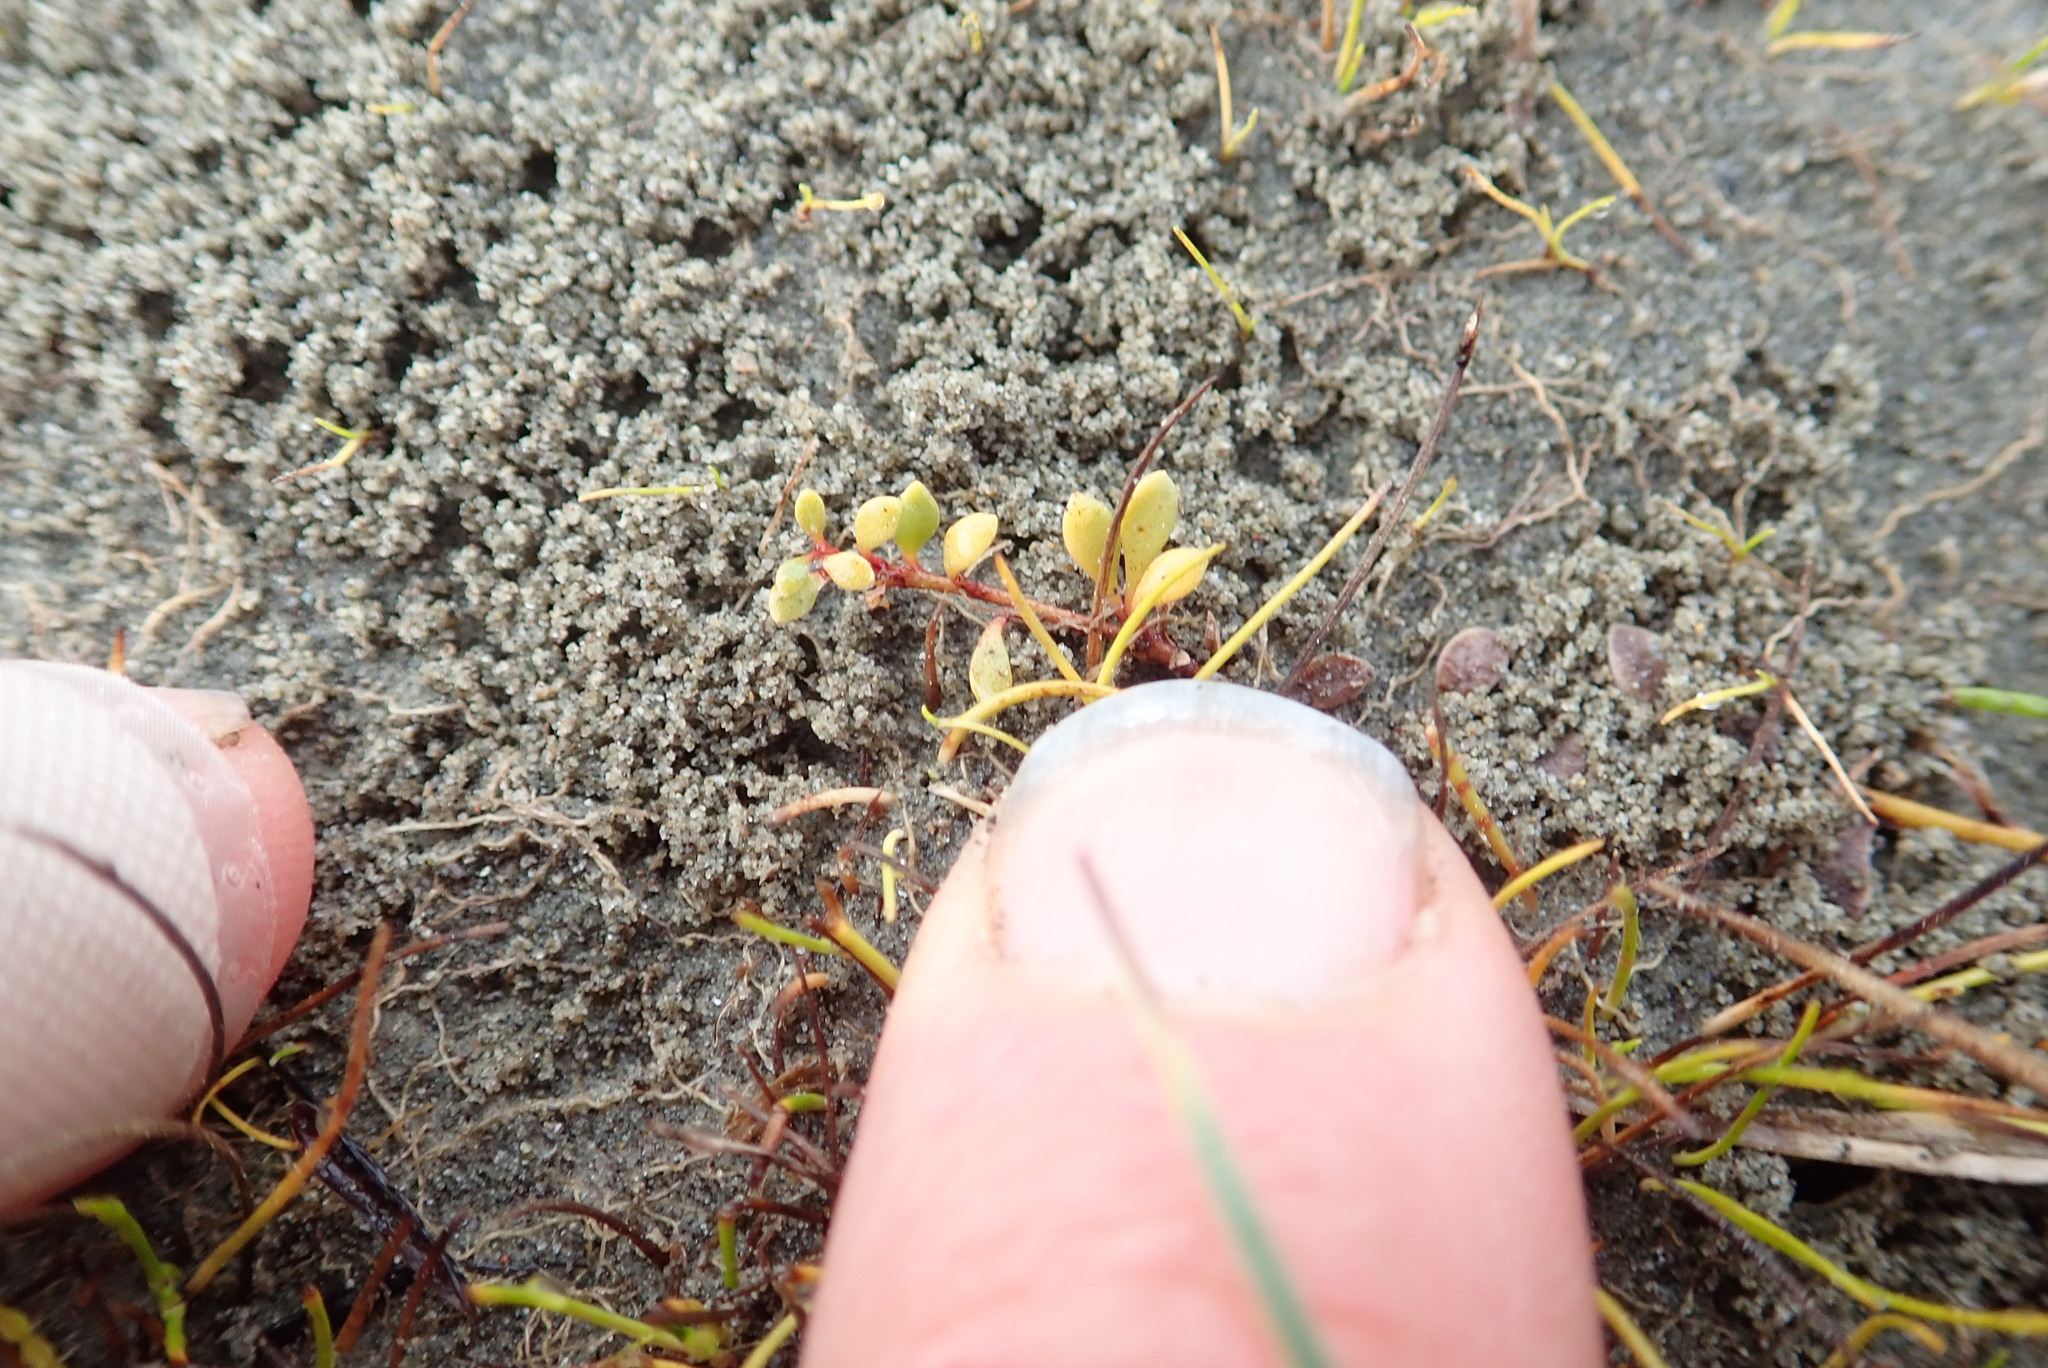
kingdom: Plantae
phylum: Tracheophyta
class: Magnoliopsida
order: Ericales
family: Primulaceae
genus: Samolus
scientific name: Samolus repens
